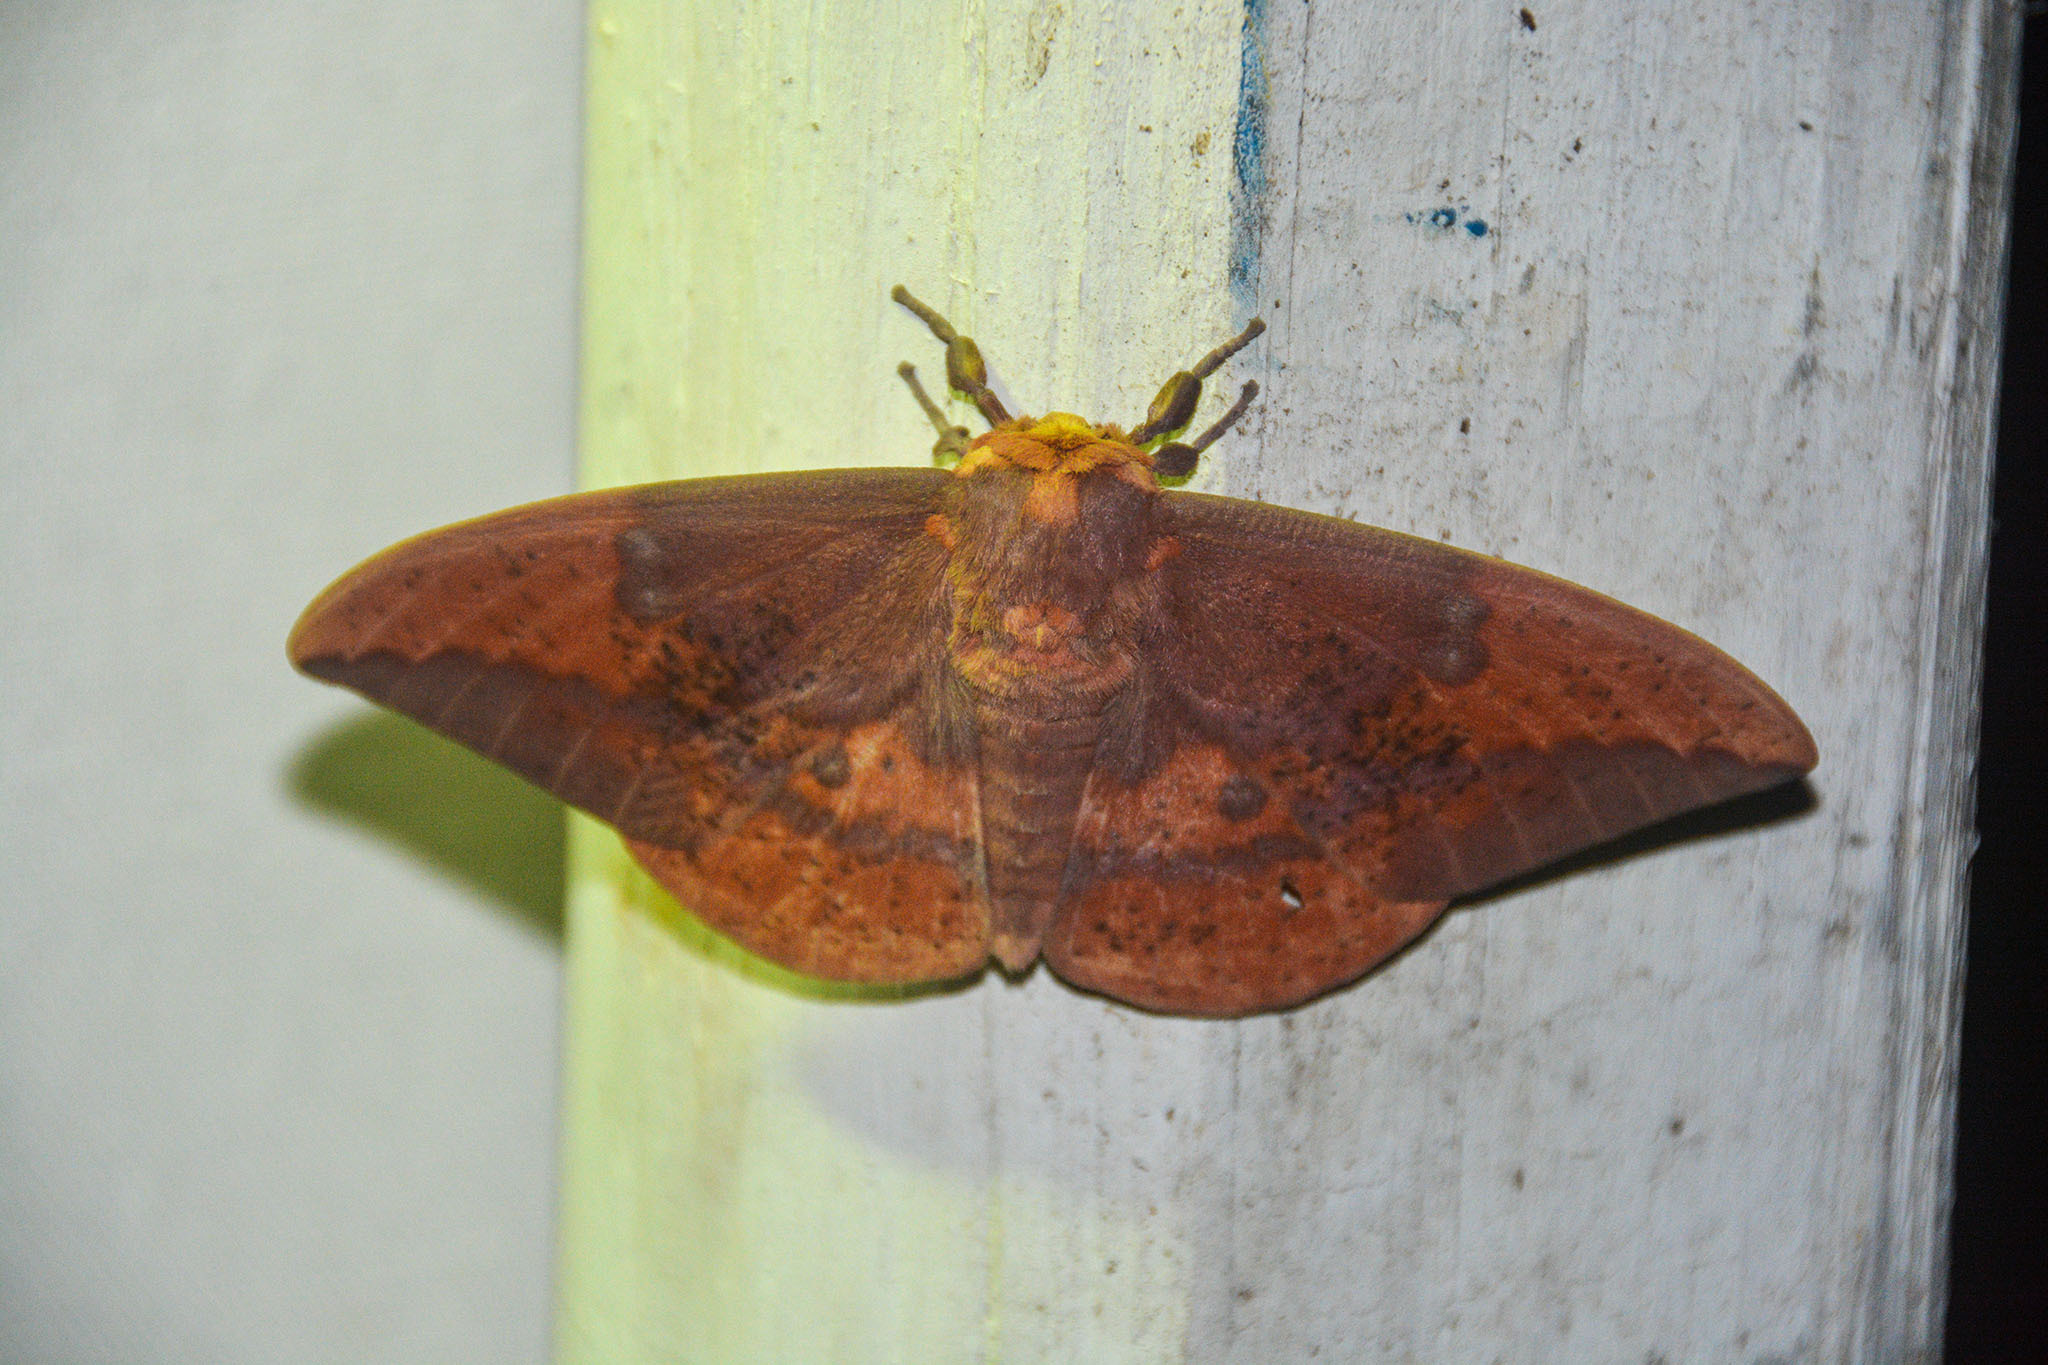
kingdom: Animalia
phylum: Arthropoda
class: Insecta
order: Lepidoptera
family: Saturniidae
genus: Eacles
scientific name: Eacles imperialis
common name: Imperial moth
